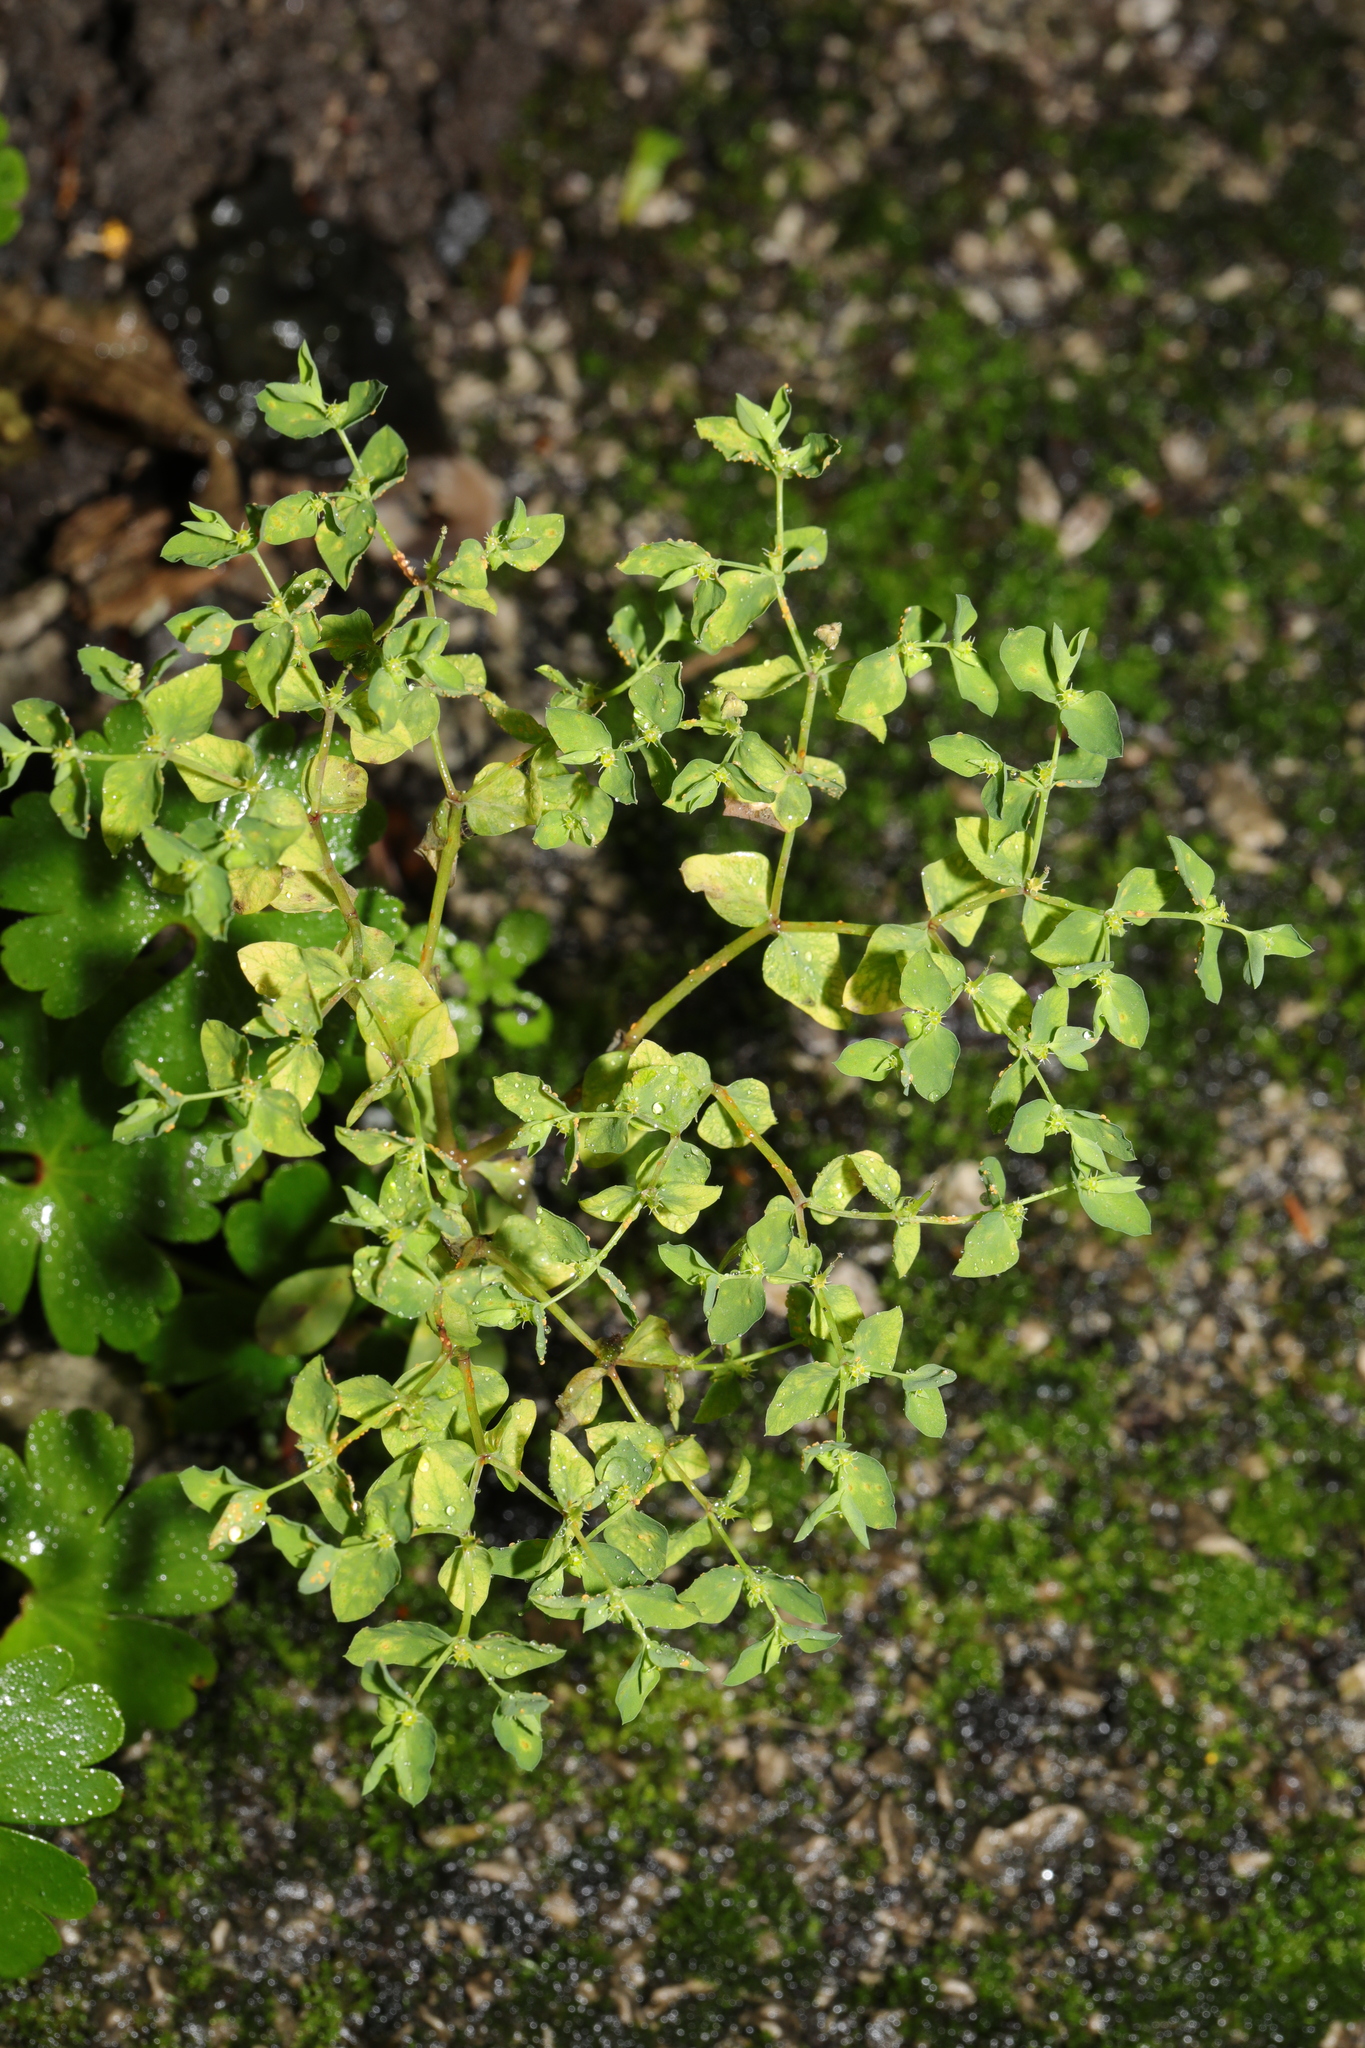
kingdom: Plantae
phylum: Tracheophyta
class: Magnoliopsida
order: Malpighiales
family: Euphorbiaceae
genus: Euphorbia
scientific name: Euphorbia peplus
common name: Petty spurge
